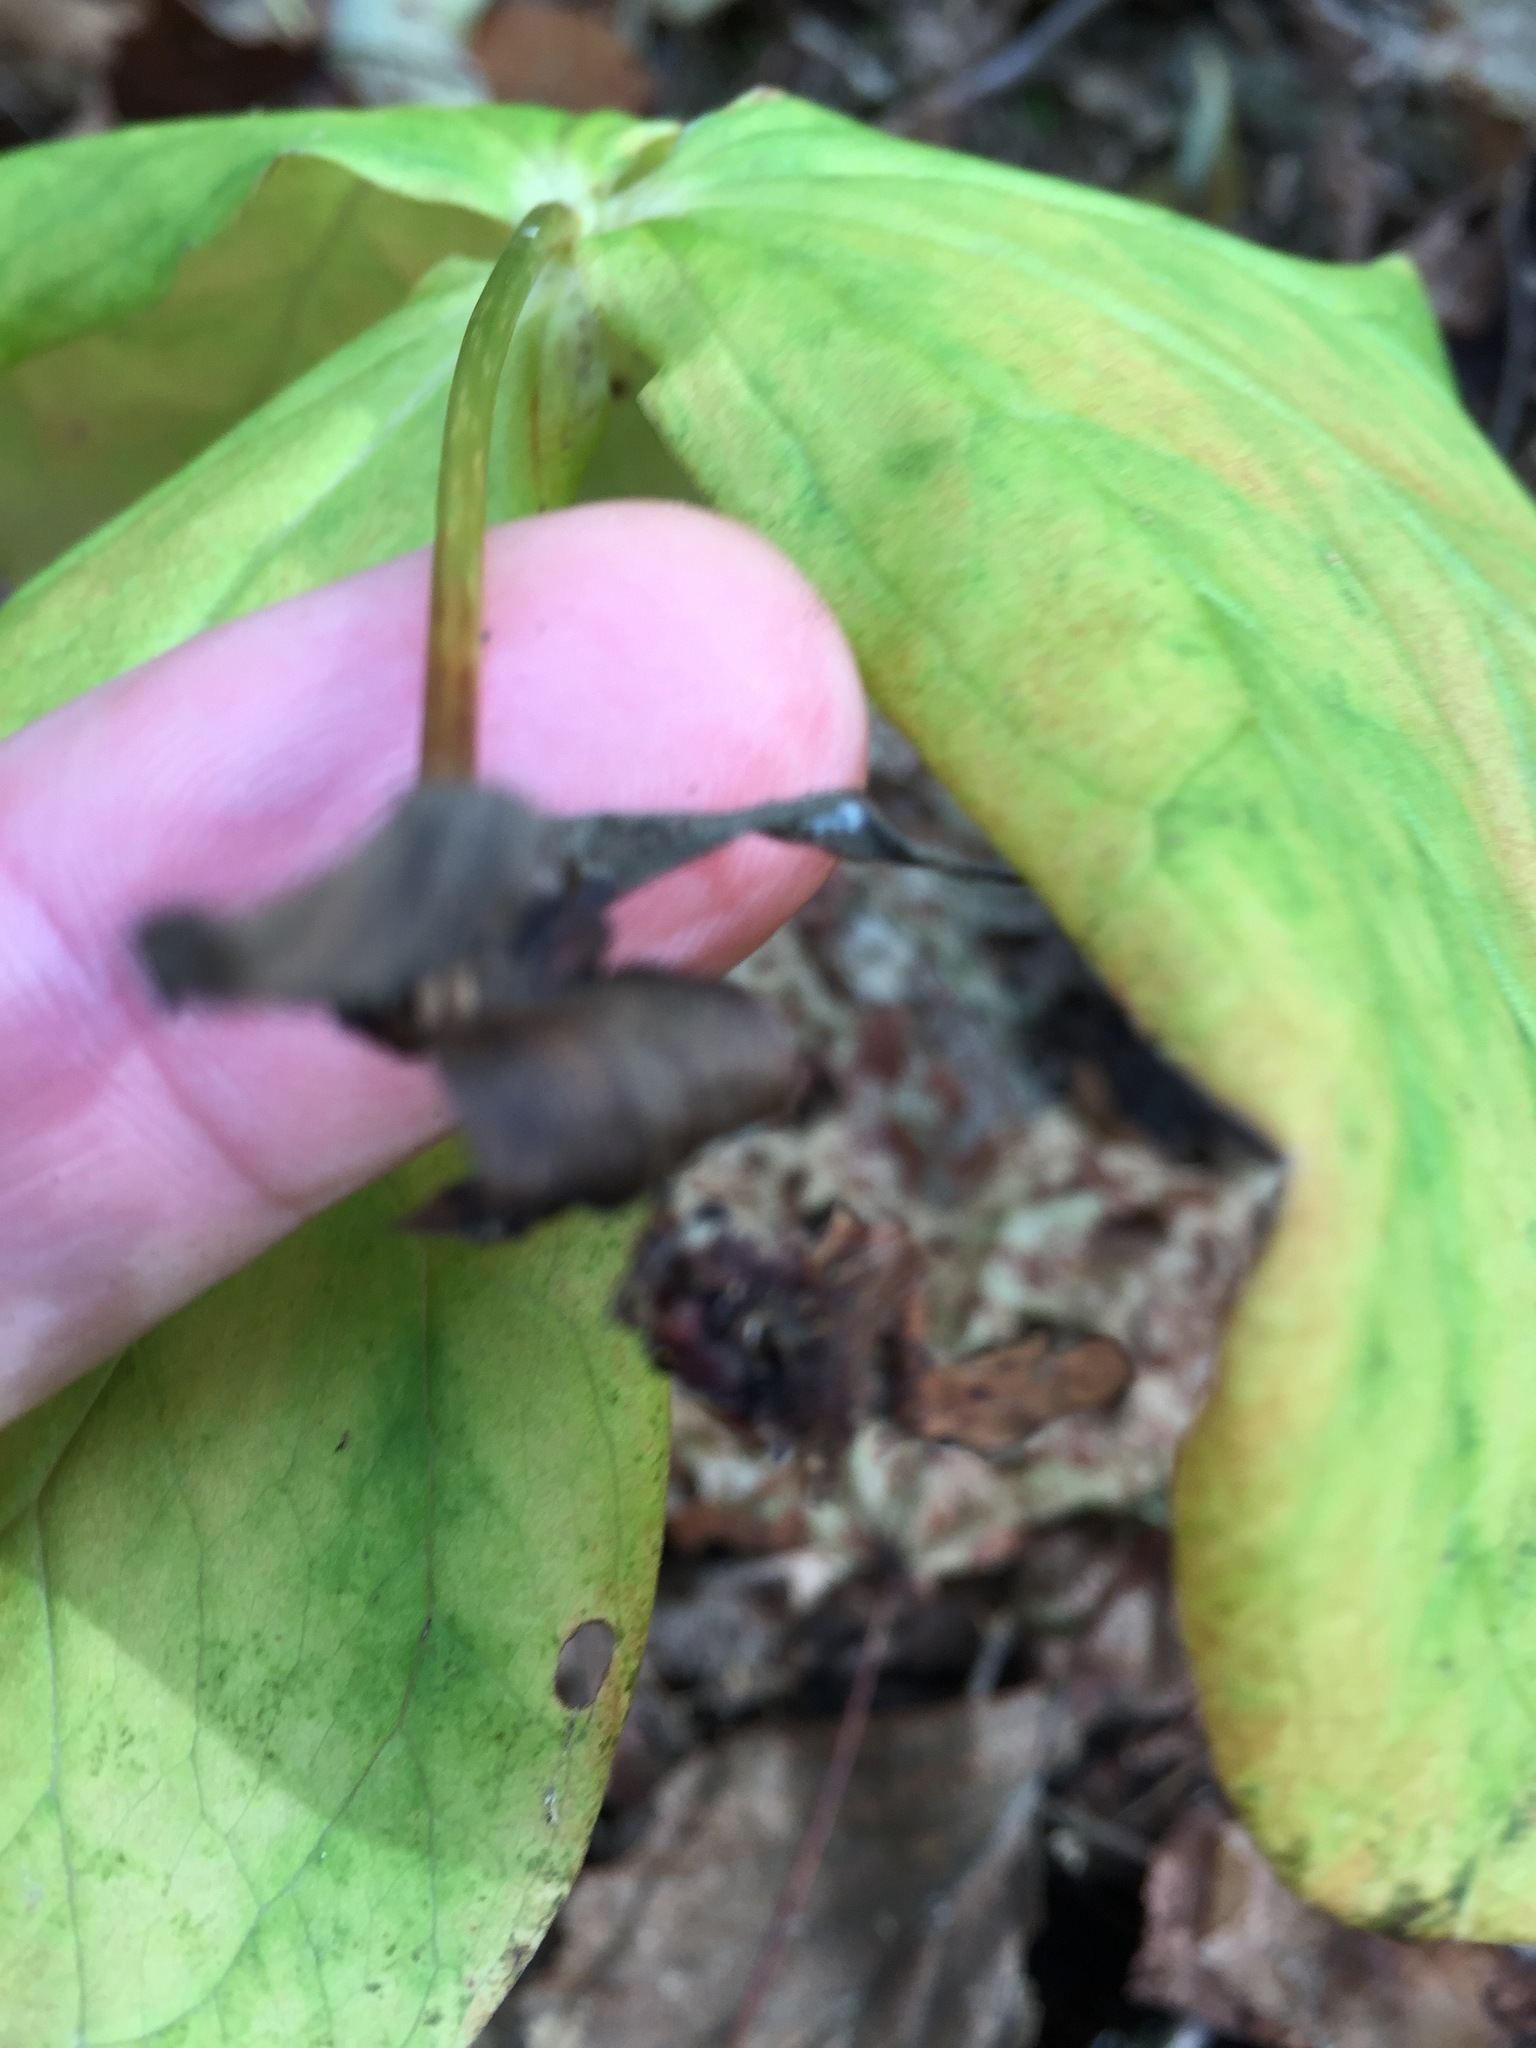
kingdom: Plantae
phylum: Tracheophyta
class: Liliopsida
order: Liliales
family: Melanthiaceae
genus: Trillium
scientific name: Trillium erectum
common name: Purple trillium
